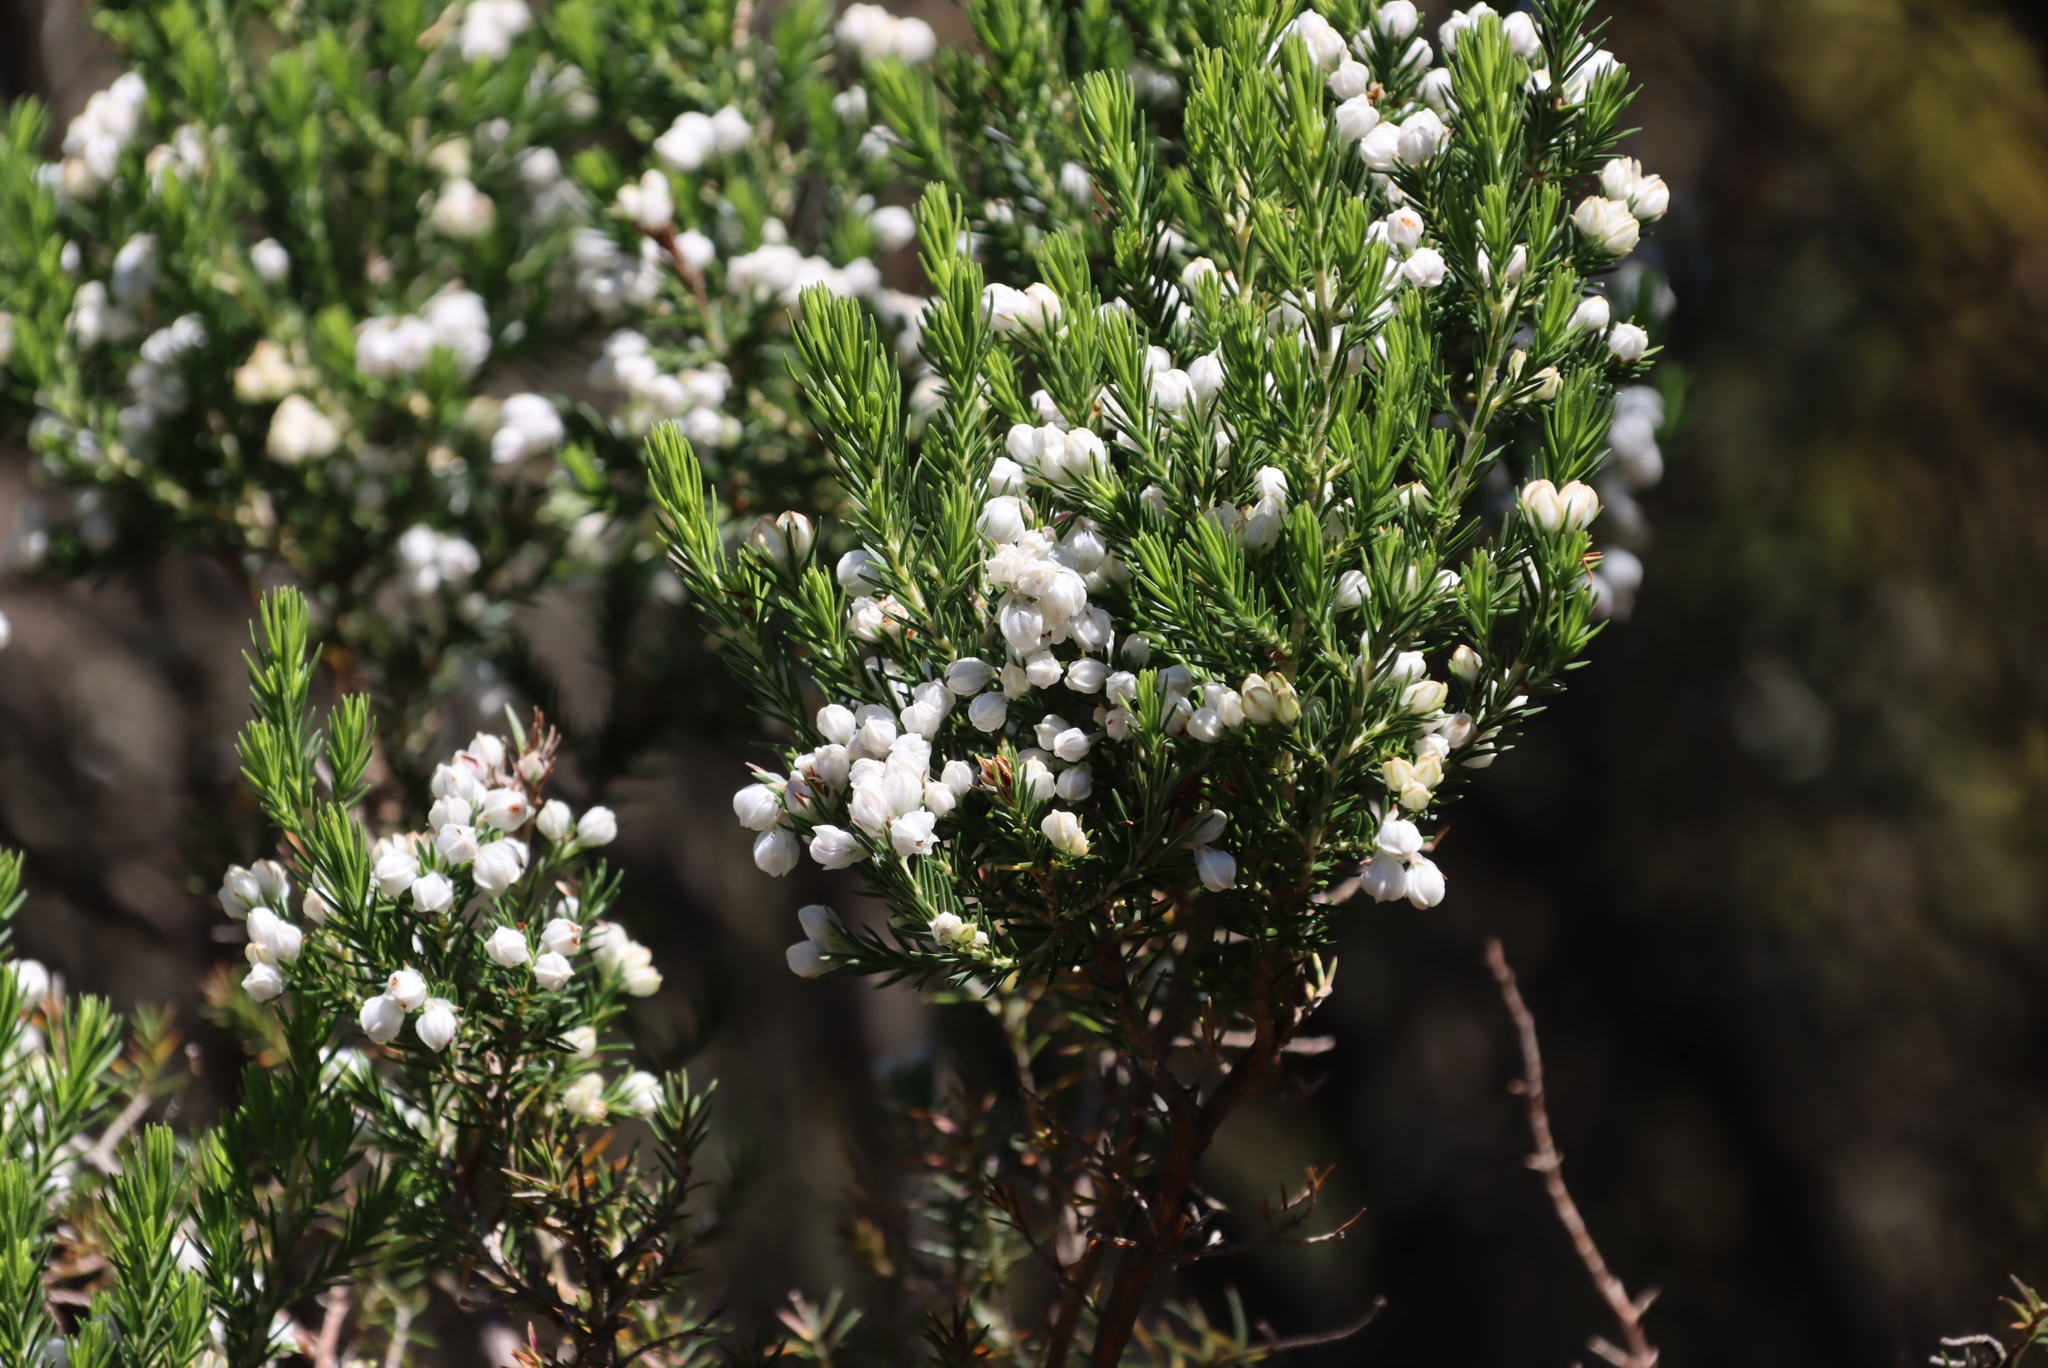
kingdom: Plantae
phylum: Tracheophyta
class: Magnoliopsida
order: Ericales
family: Ericaceae
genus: Erica
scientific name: Erica triflora
